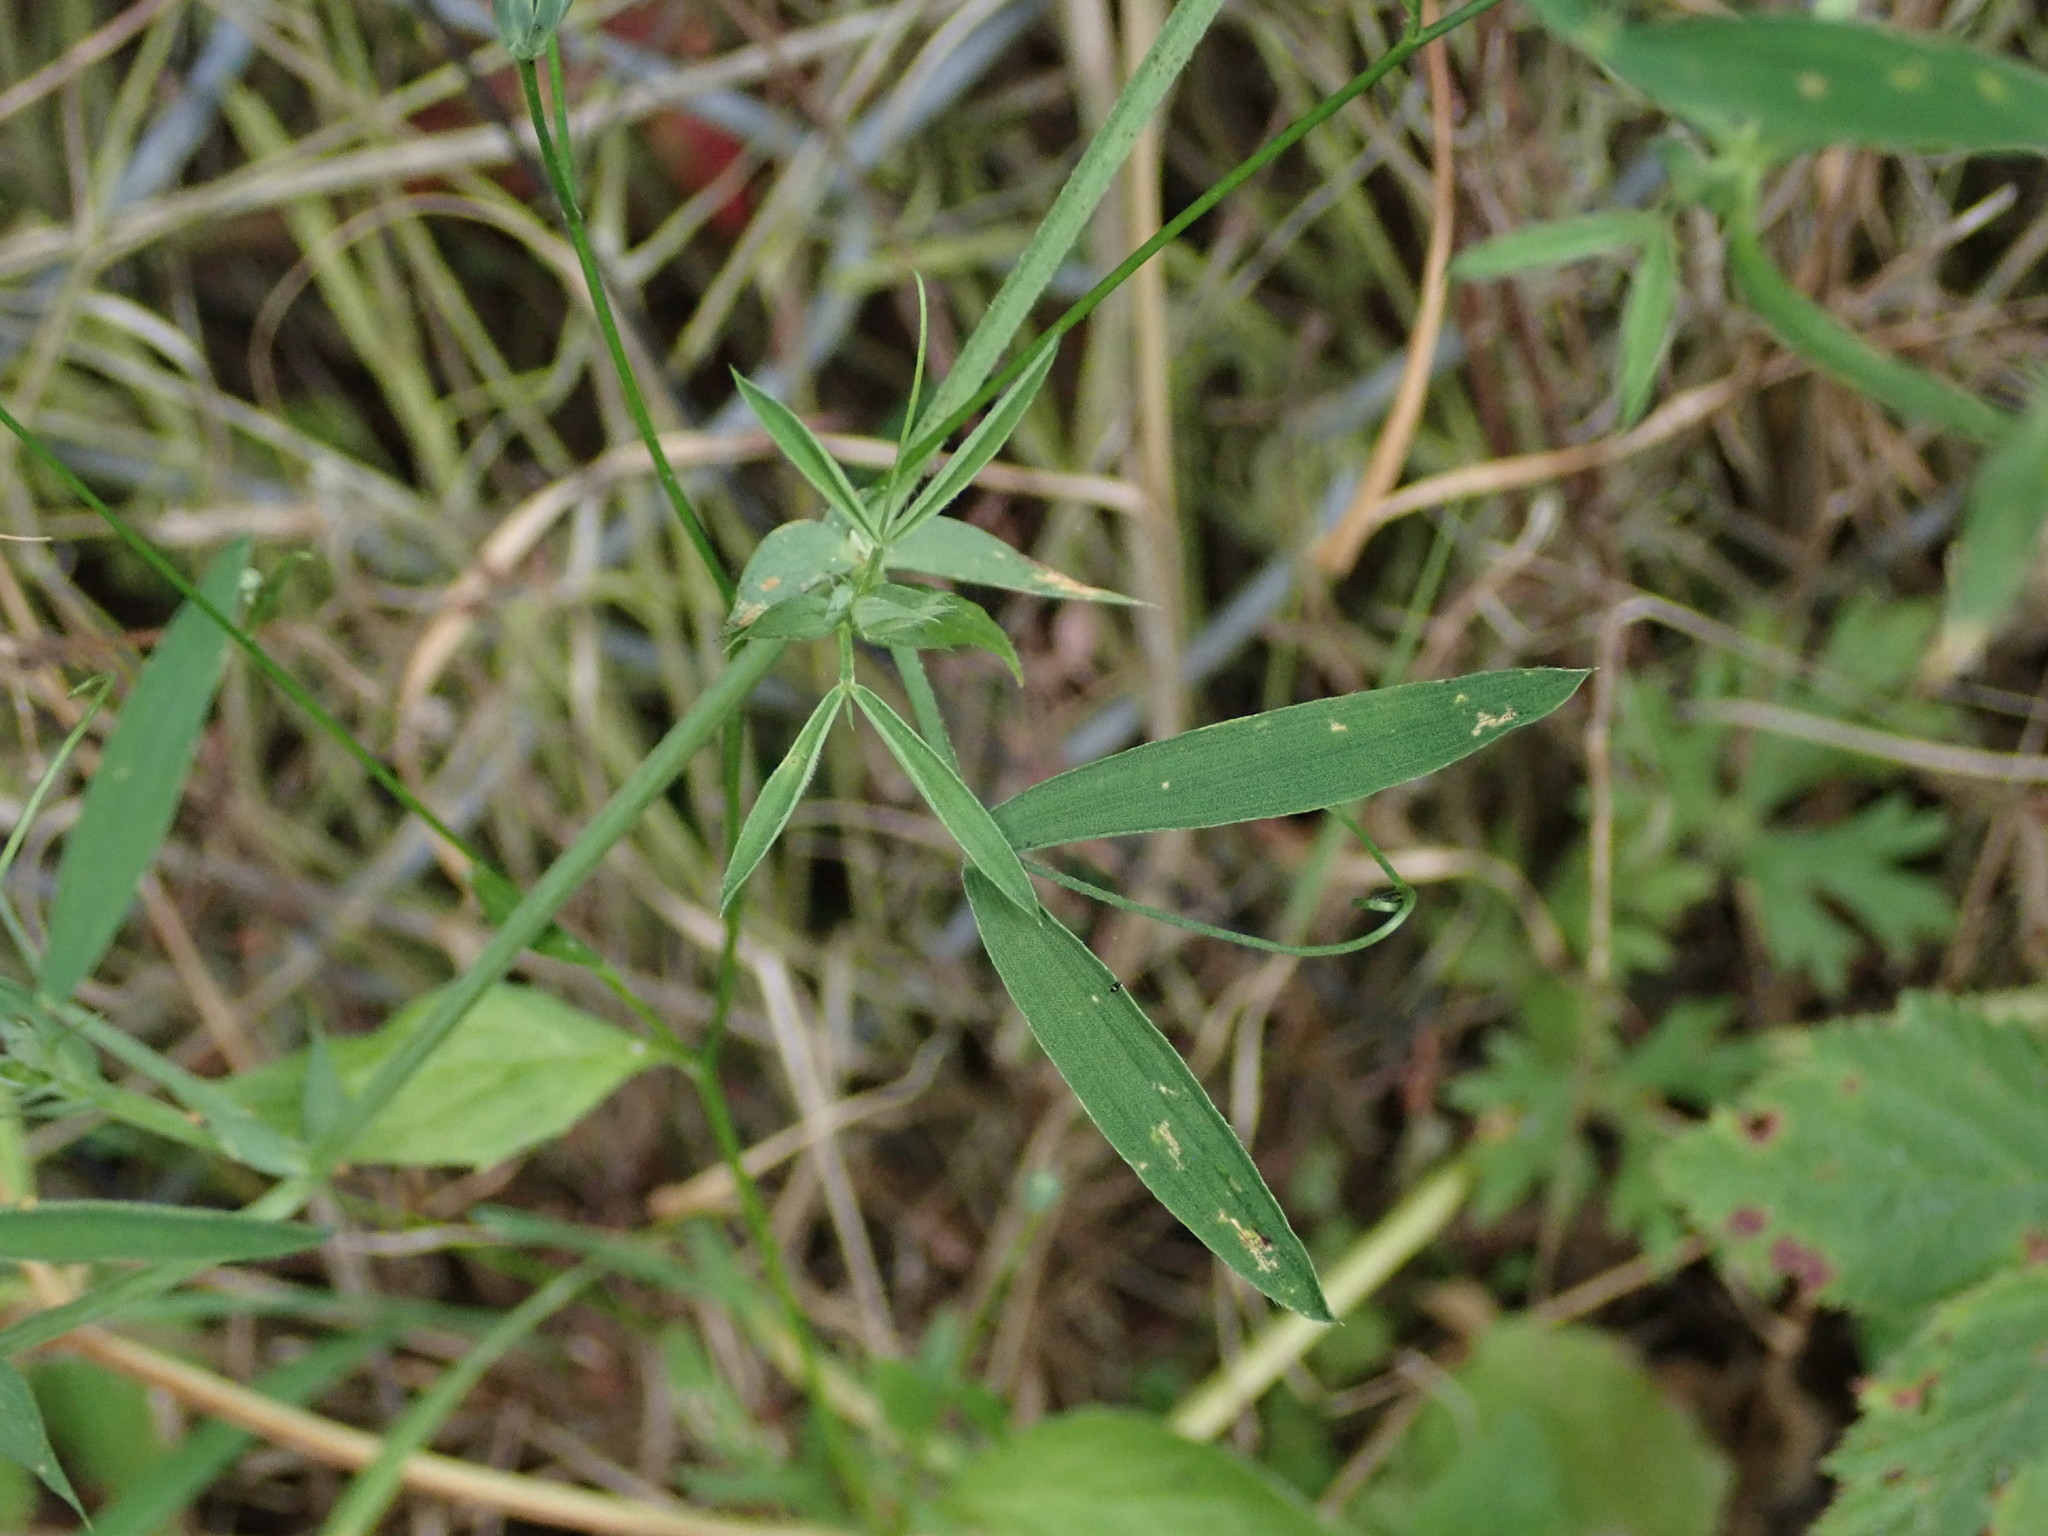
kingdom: Plantae
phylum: Tracheophyta
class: Magnoliopsida
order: Fabales
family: Fabaceae
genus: Lathyrus
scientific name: Lathyrus pratensis
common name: Meadow vetchling
